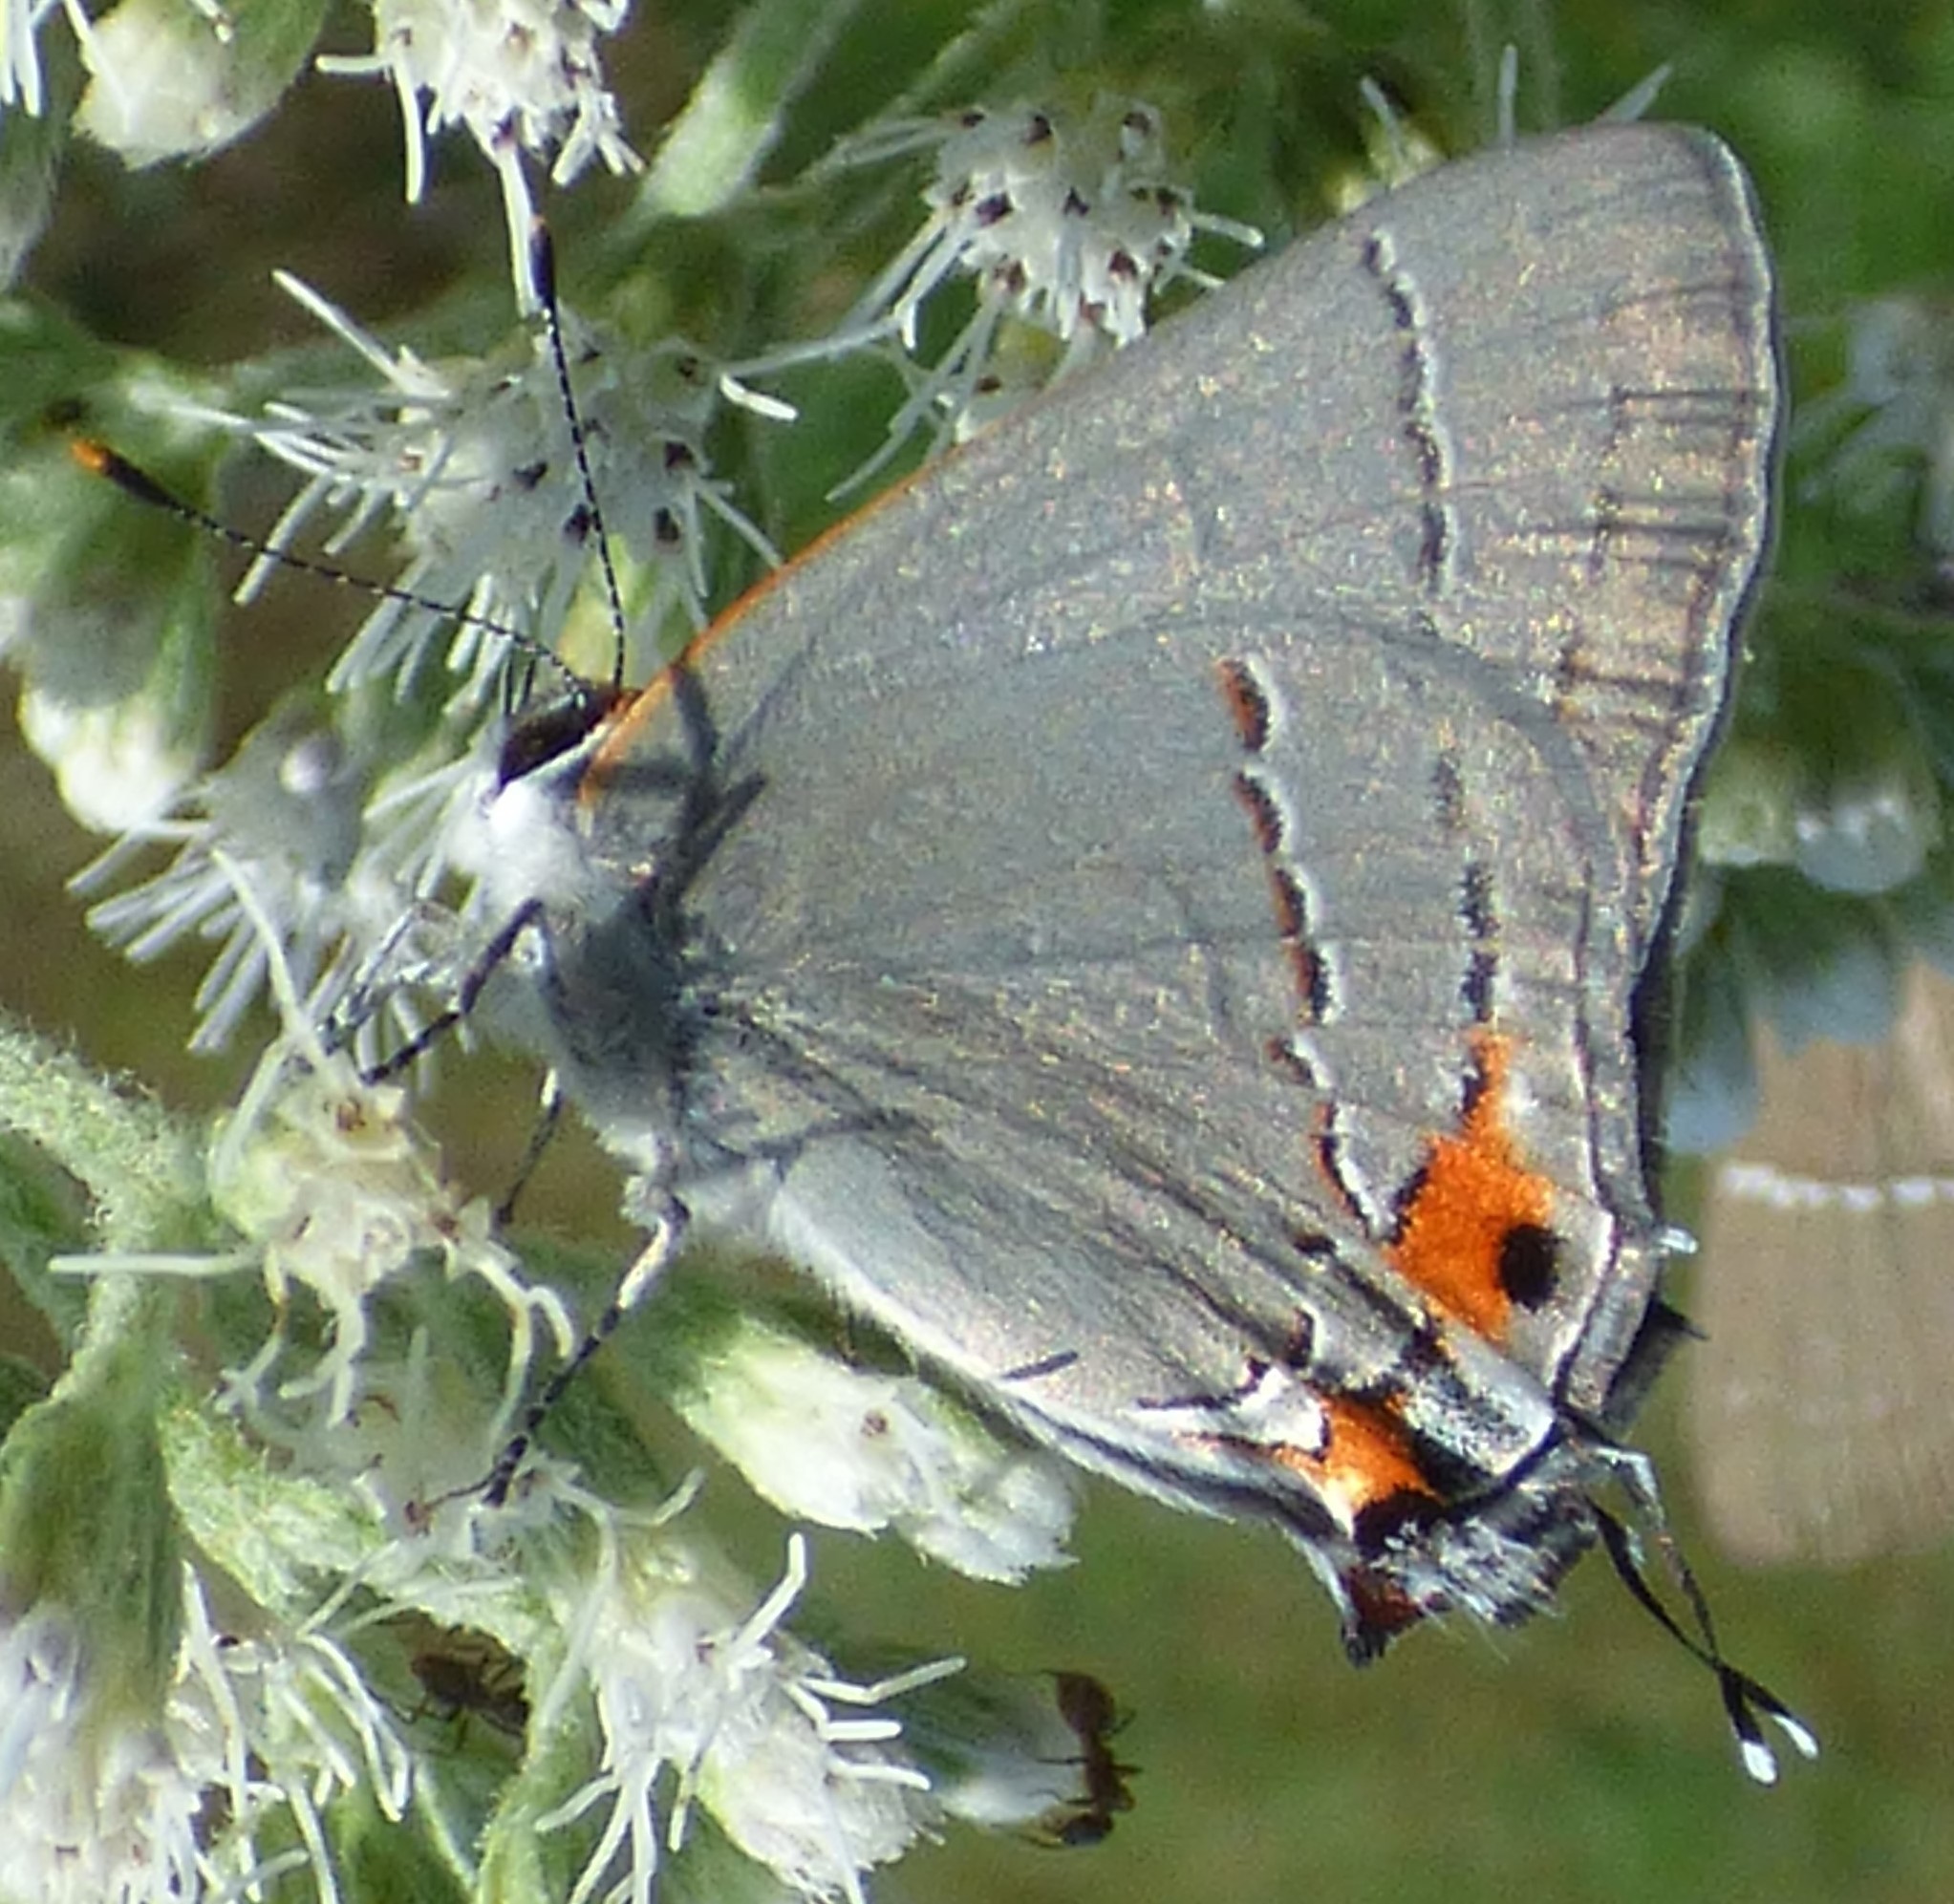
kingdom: Animalia
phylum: Arthropoda
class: Insecta
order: Lepidoptera
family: Lycaenidae
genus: Strymon
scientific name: Strymon melinus
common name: Gray hairstreak
